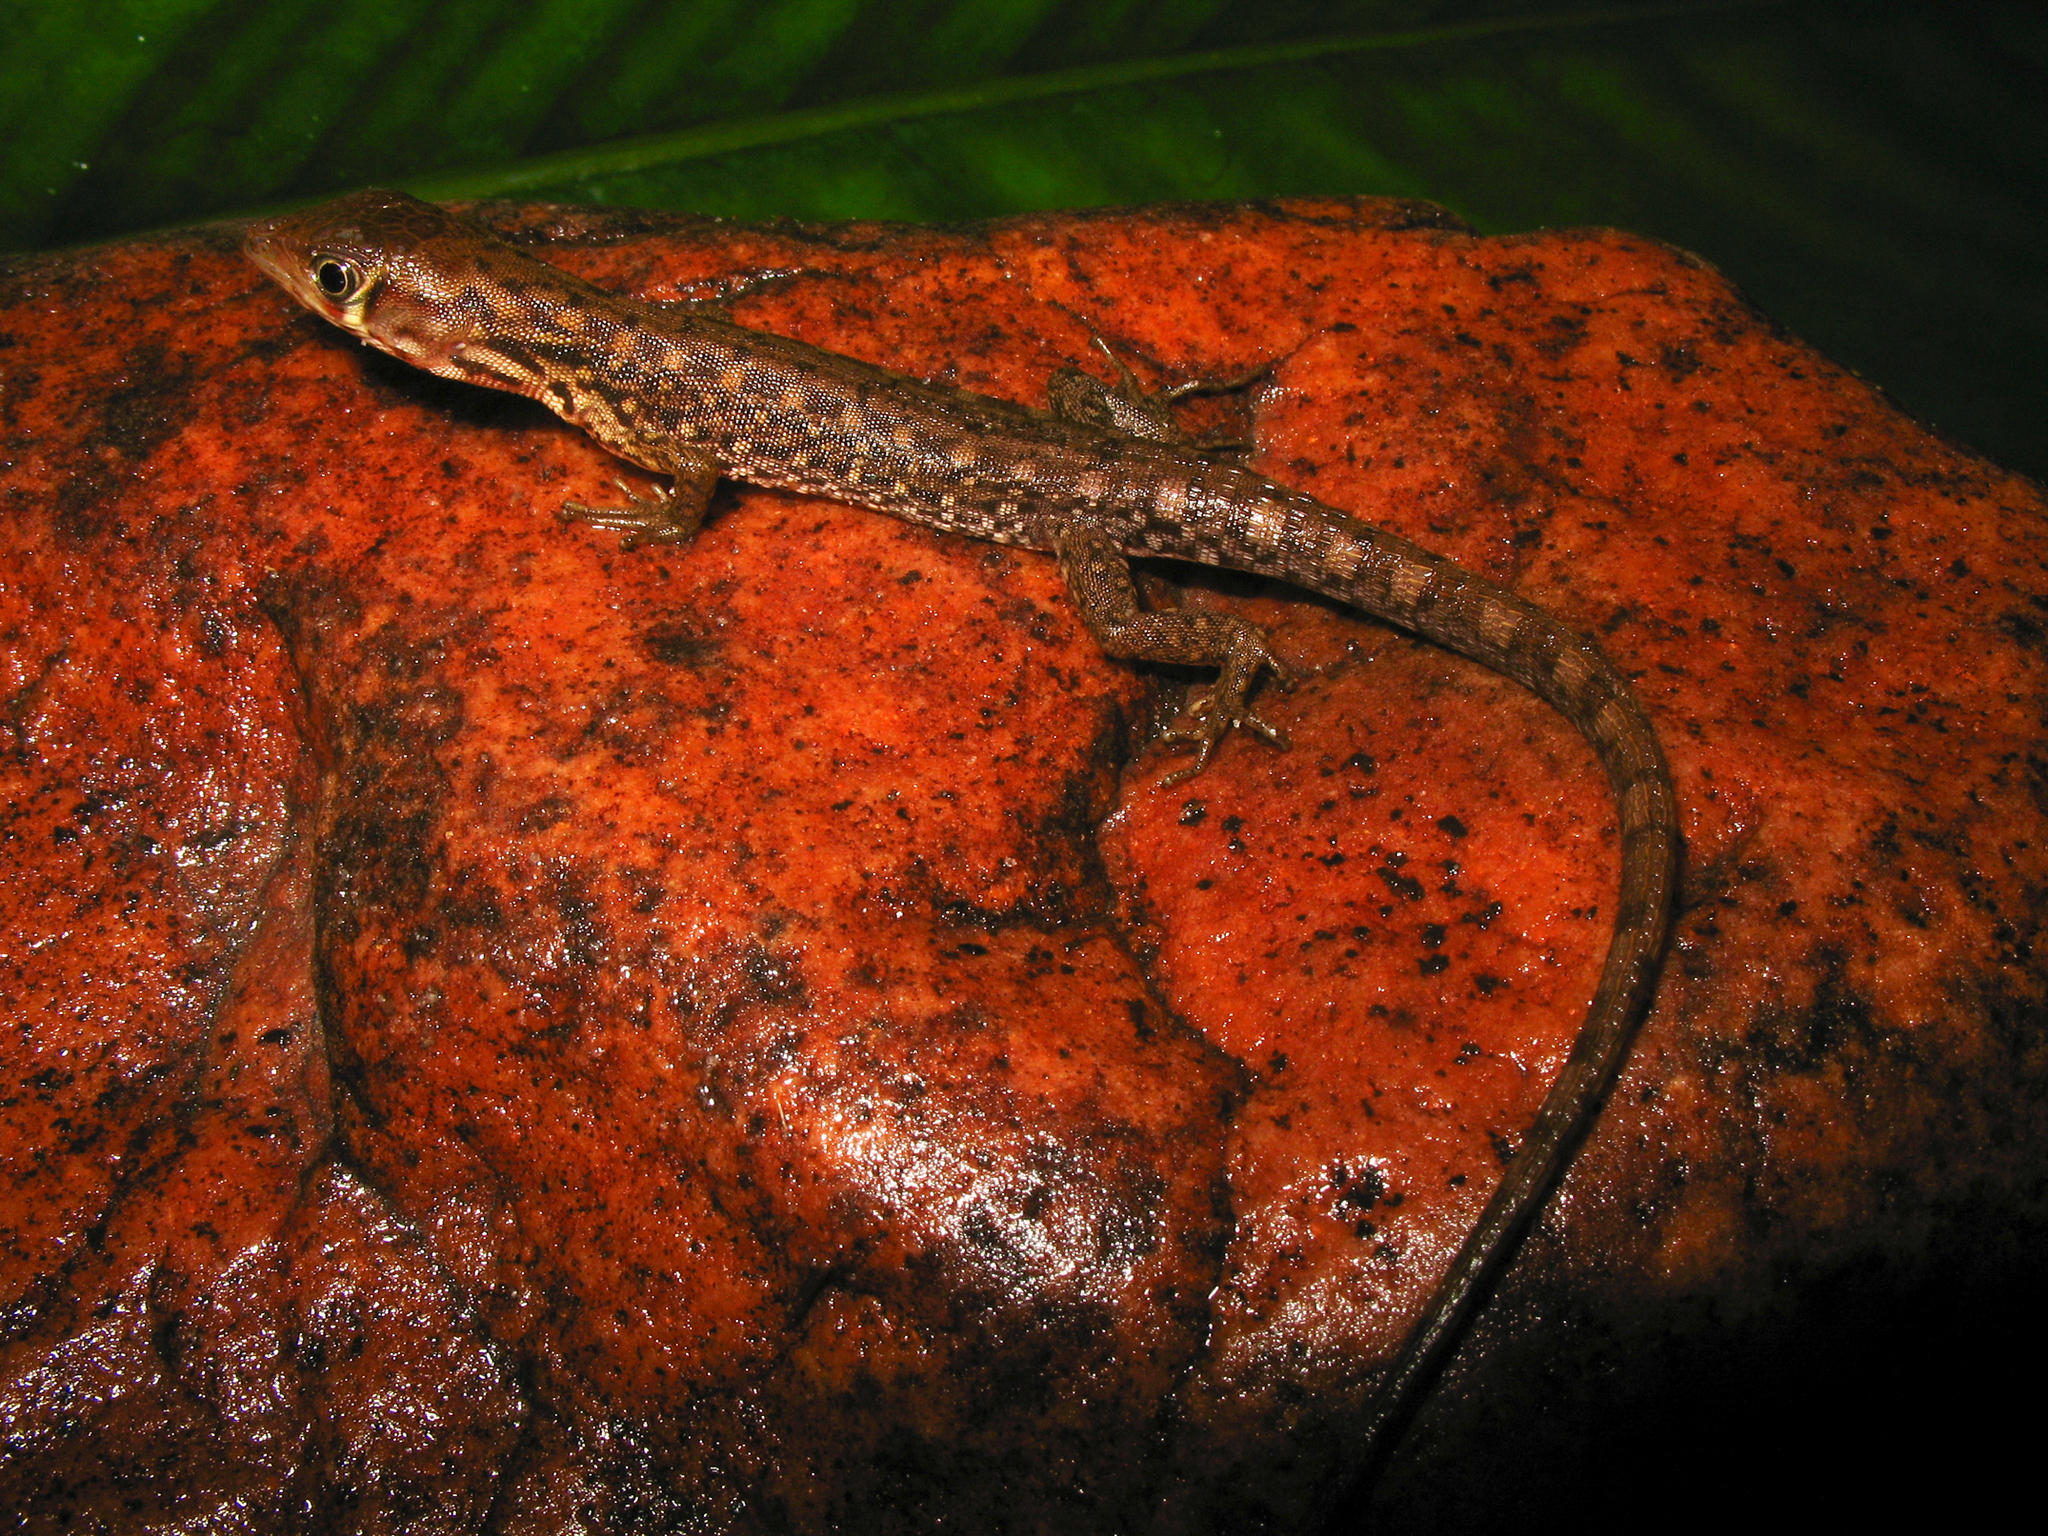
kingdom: Animalia
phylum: Chordata
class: Squamata
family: Gymnophthalmidae
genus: Neusticurus
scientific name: Neusticurus racenisi
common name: Common venezuelan water teiid
